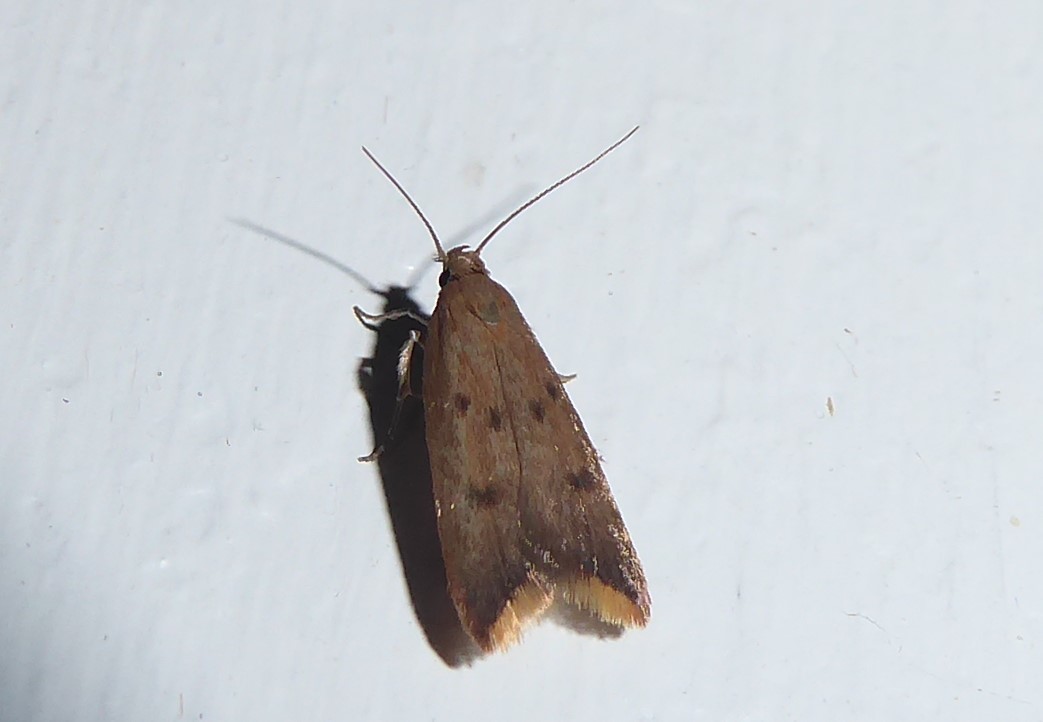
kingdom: Animalia
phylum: Arthropoda
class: Insecta
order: Lepidoptera
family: Oecophoridae
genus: Tachystola
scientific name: Tachystola acroxantha
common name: Ruddy streak
